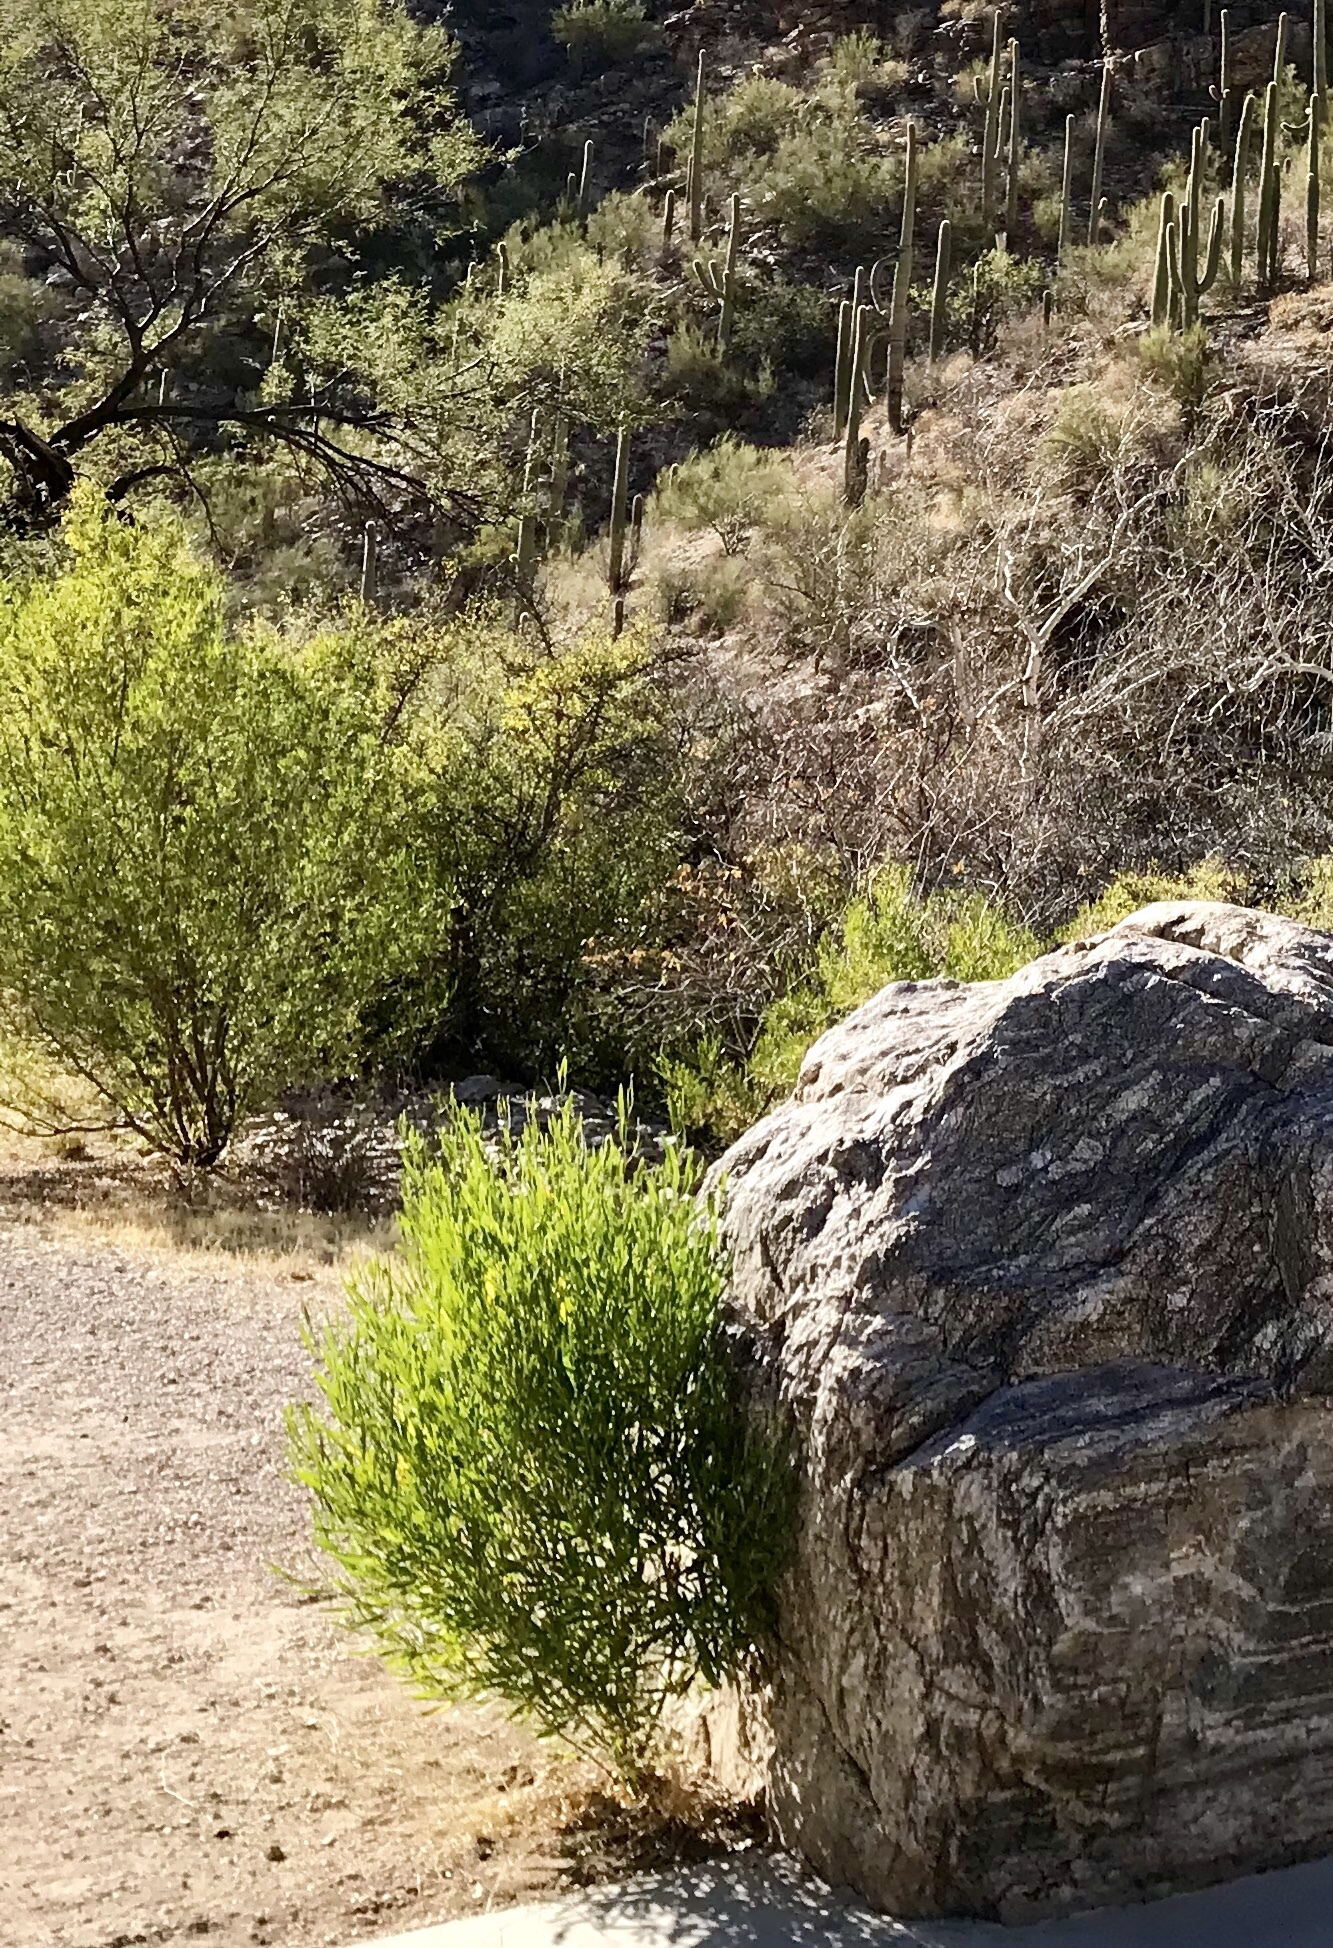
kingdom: Plantae
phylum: Tracheophyta
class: Magnoliopsida
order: Sapindales
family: Sapindaceae
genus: Dodonaea
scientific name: Dodonaea viscosa
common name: Hopbush
